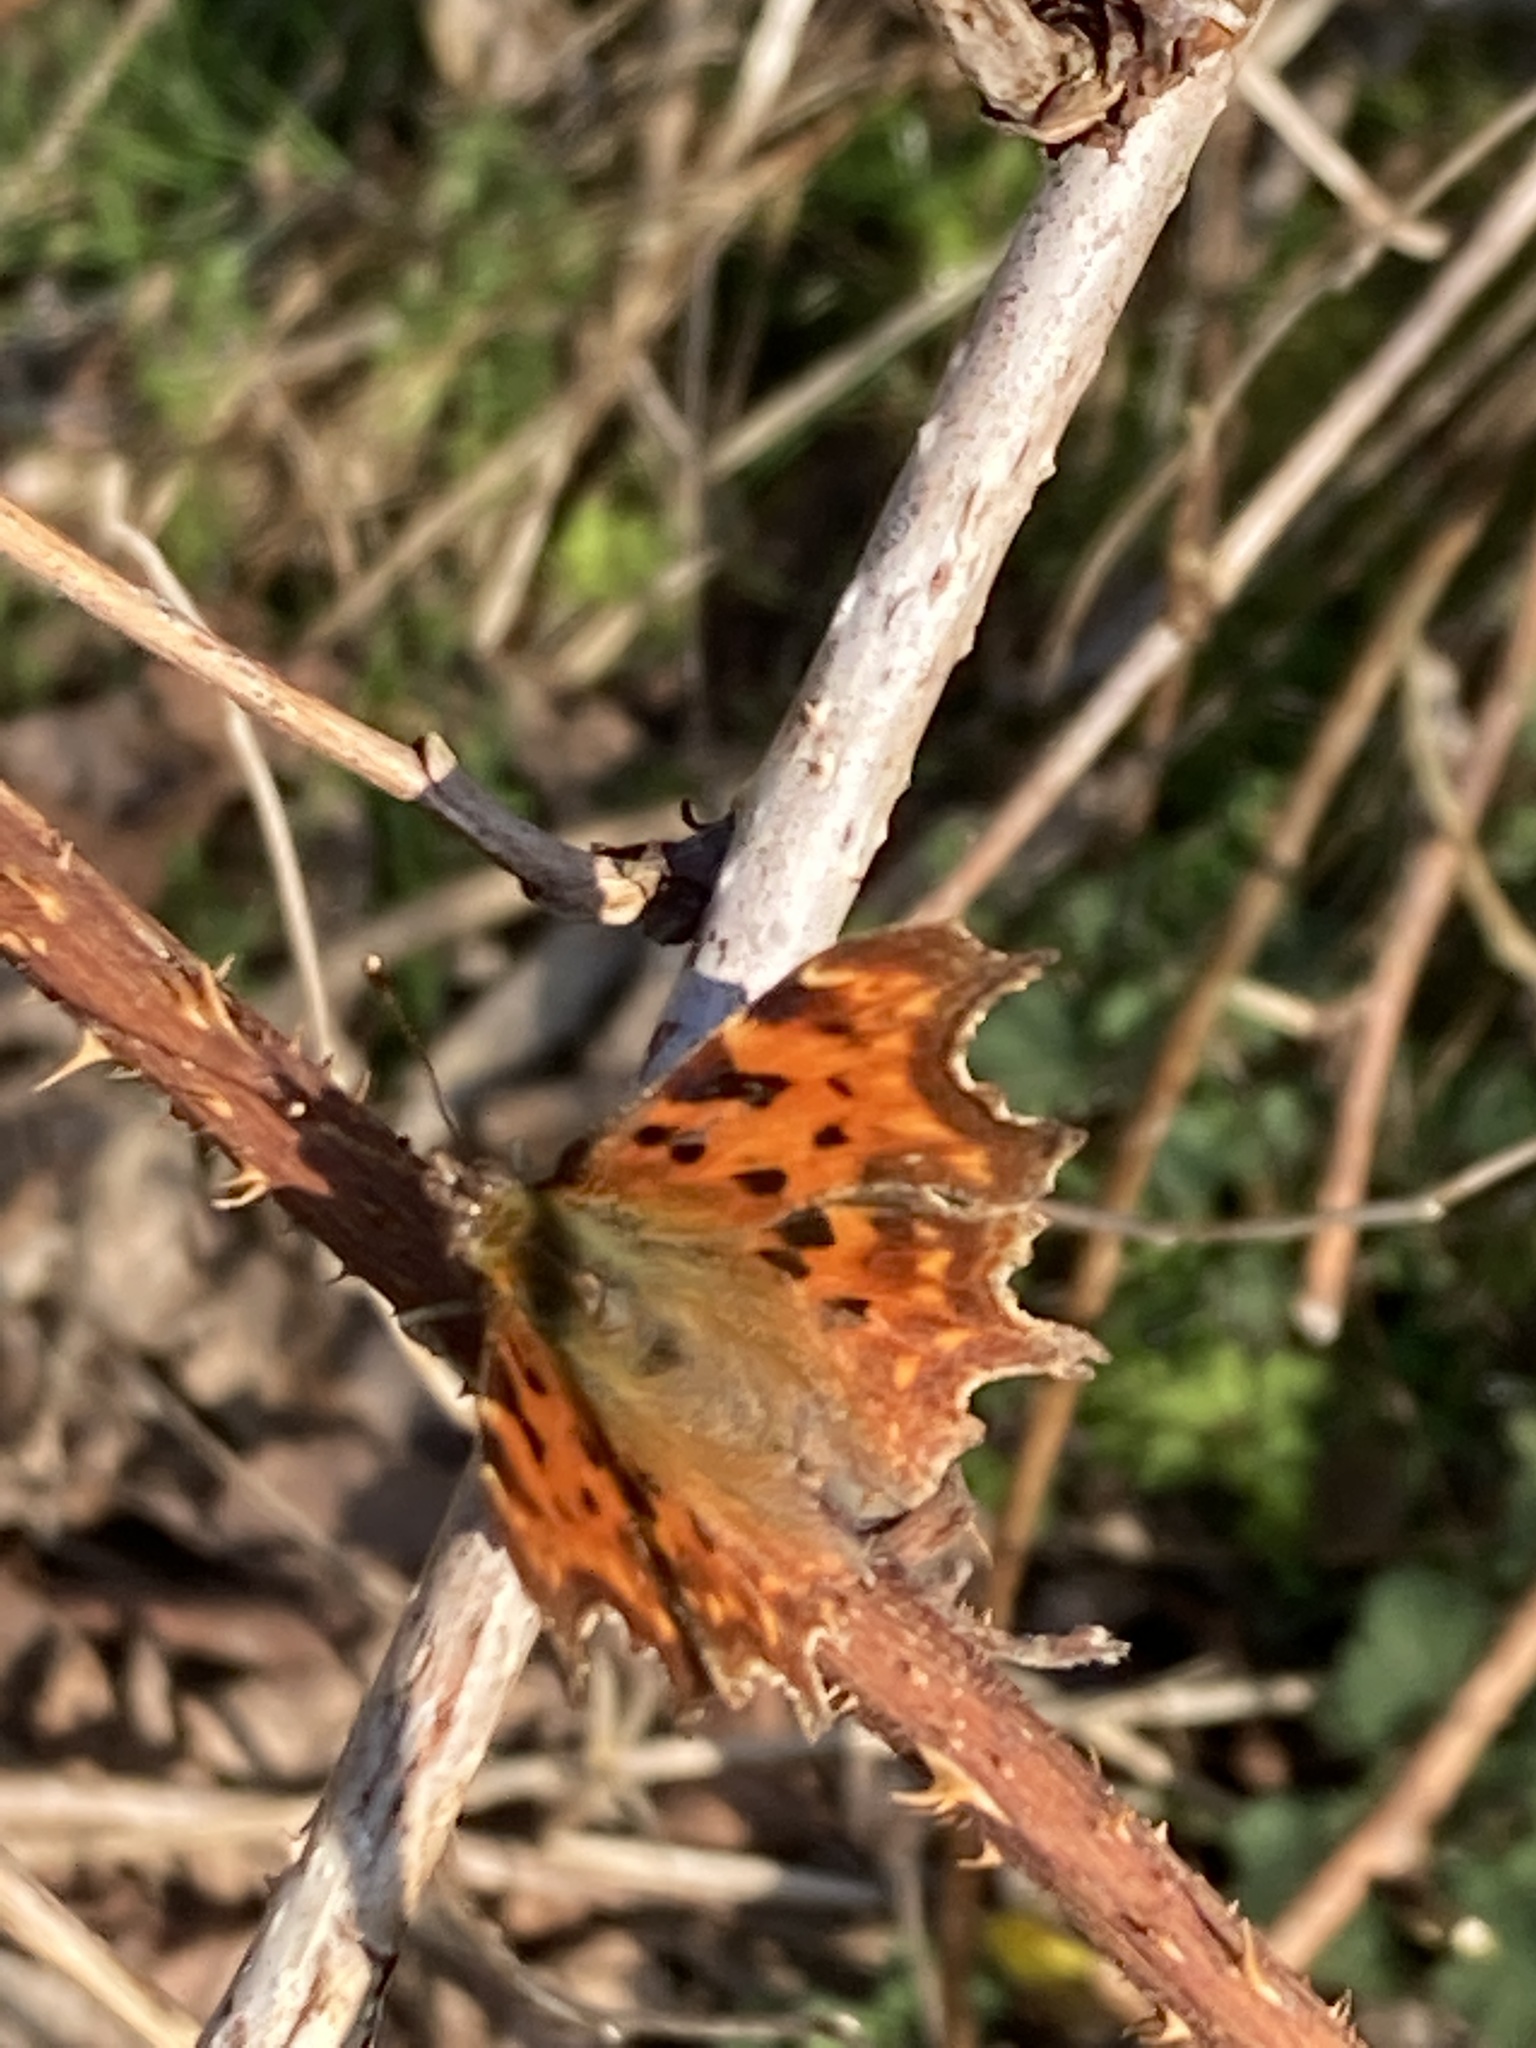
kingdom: Animalia
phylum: Arthropoda
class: Insecta
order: Lepidoptera
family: Nymphalidae
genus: Polygonia
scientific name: Polygonia c-album
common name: Comma
